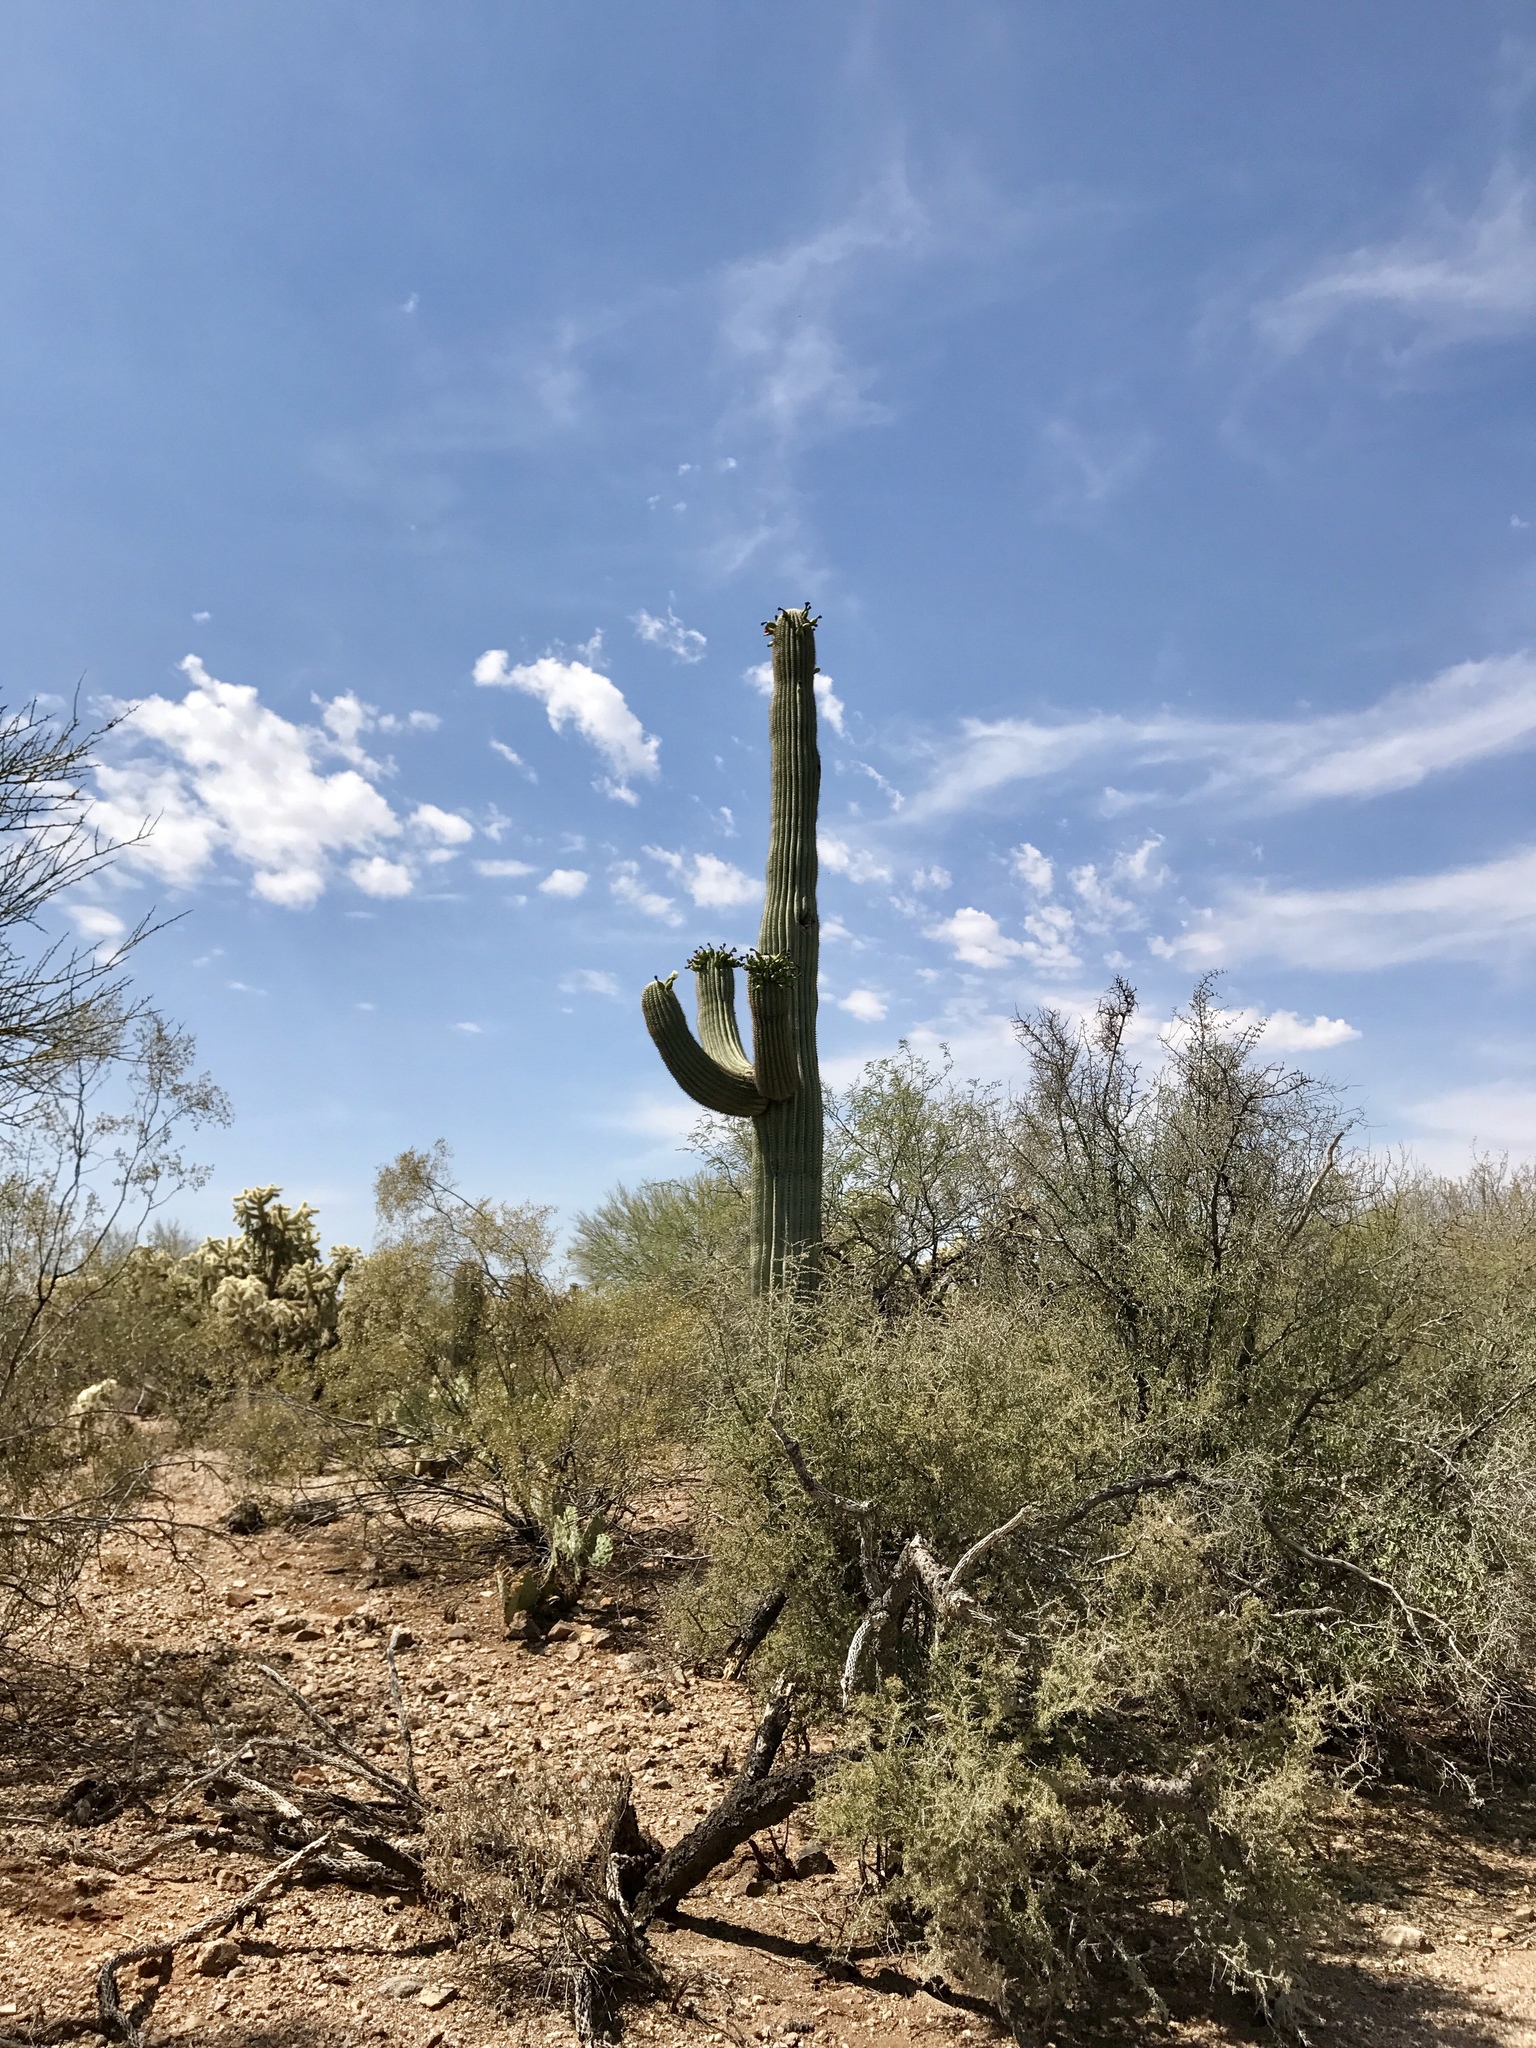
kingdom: Plantae
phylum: Tracheophyta
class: Magnoliopsida
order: Caryophyllales
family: Cactaceae
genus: Carnegiea
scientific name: Carnegiea gigantea
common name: Saguaro
